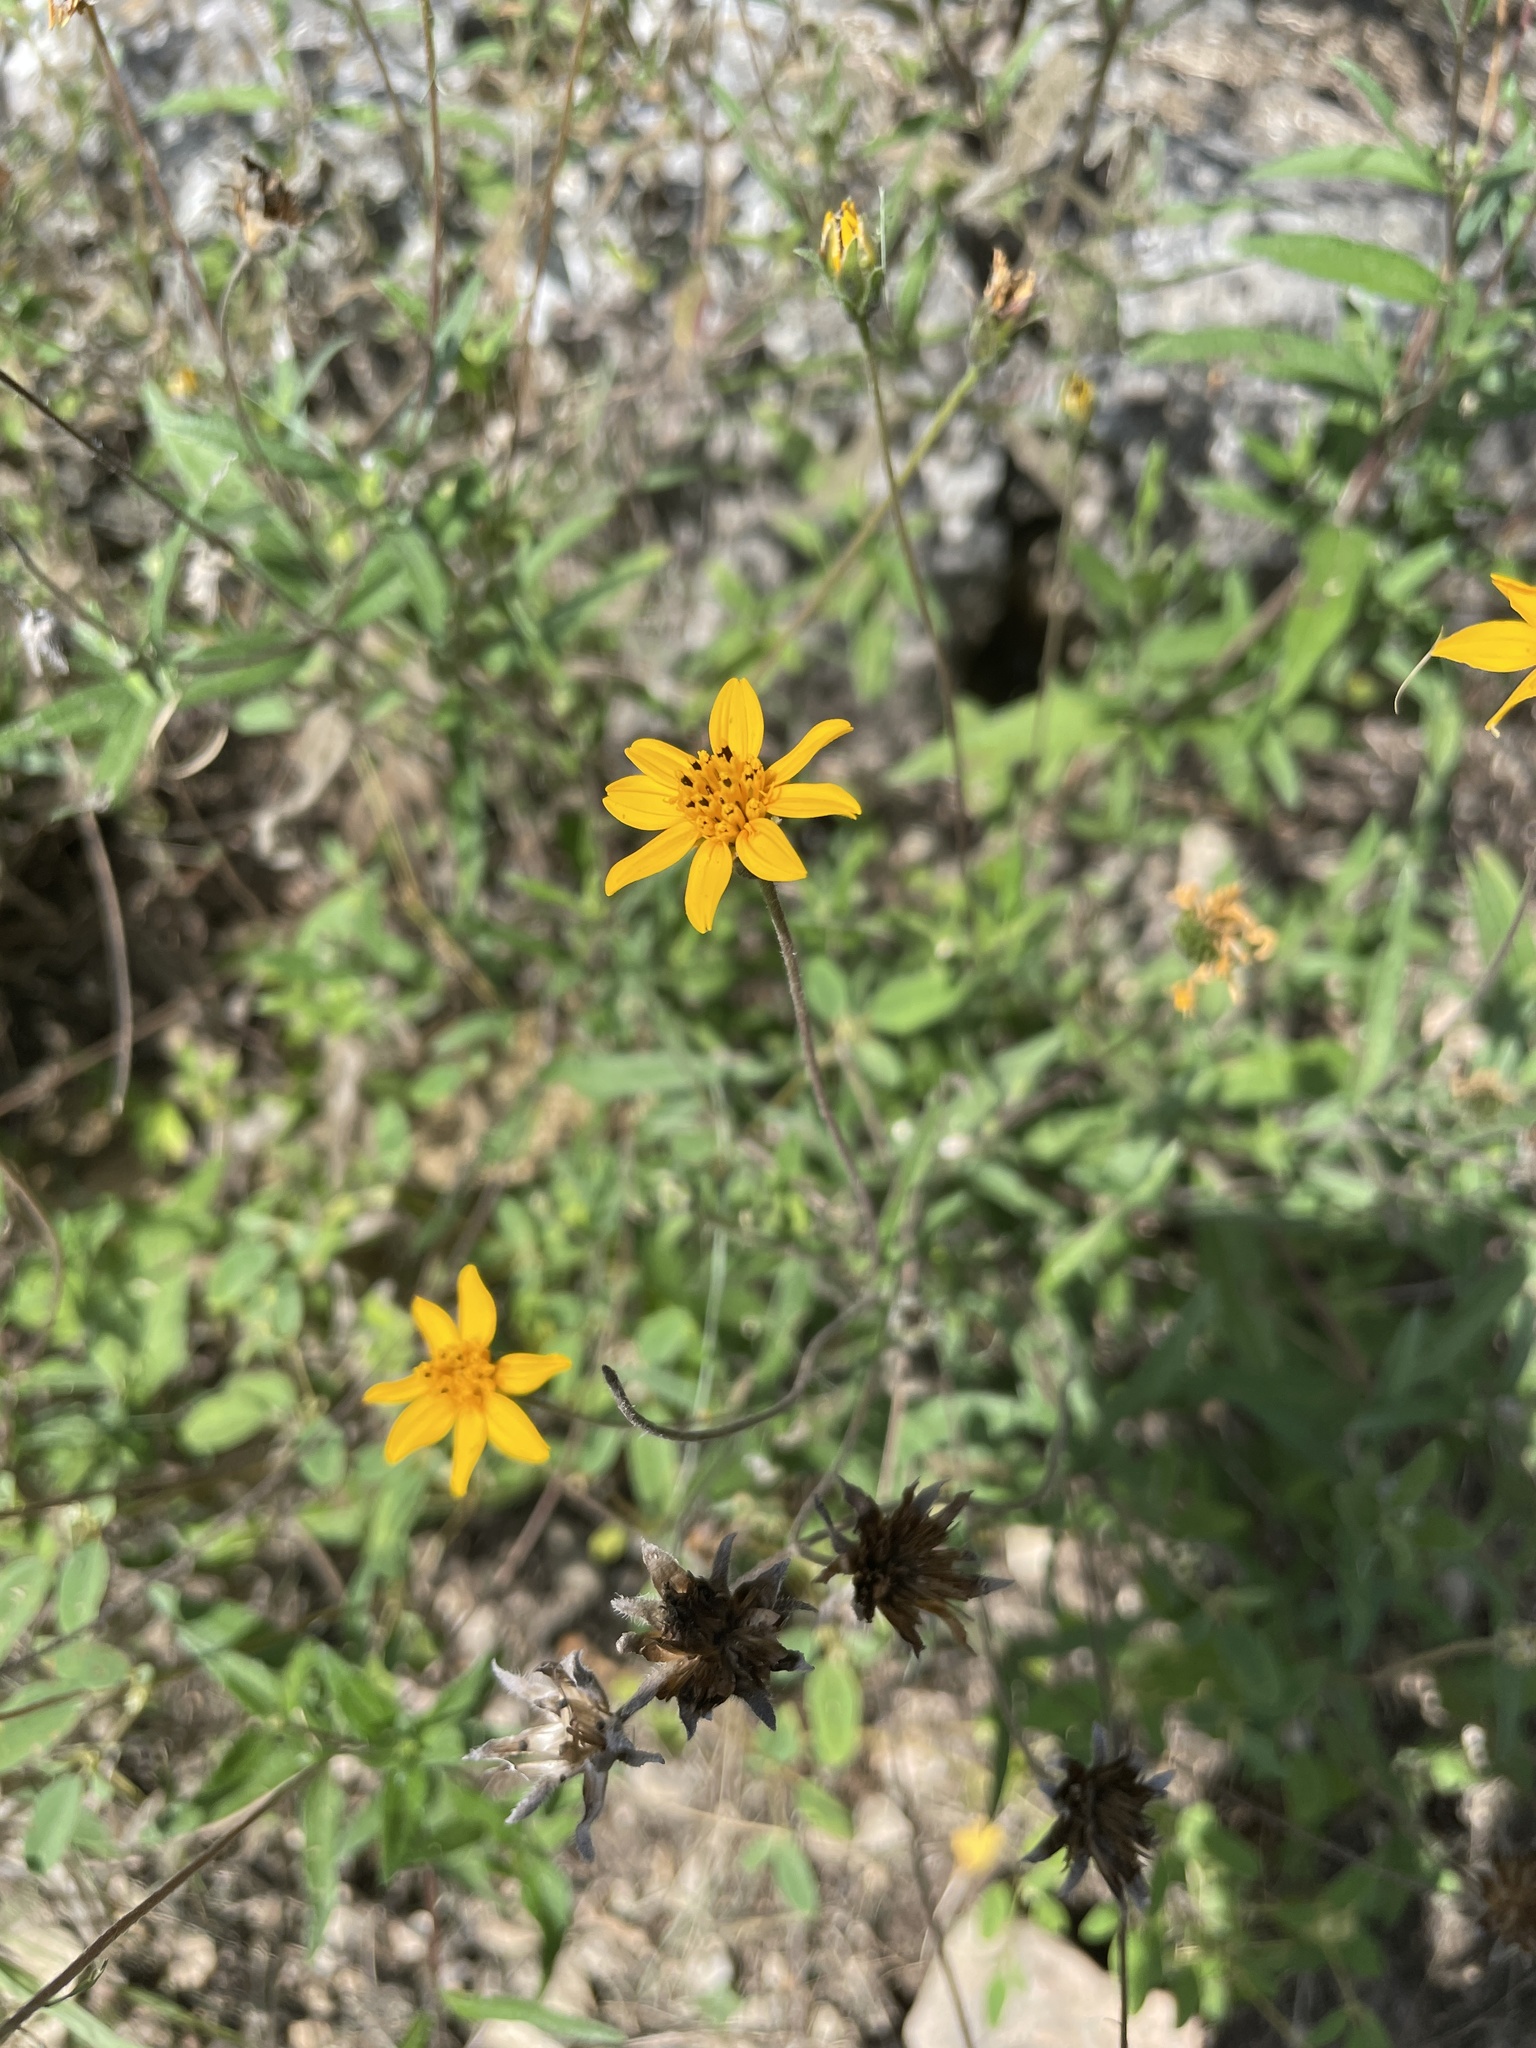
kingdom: Plantae
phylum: Tracheophyta
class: Magnoliopsida
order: Asterales
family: Asteraceae
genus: Wedelia
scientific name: Wedelia acapulcensis
